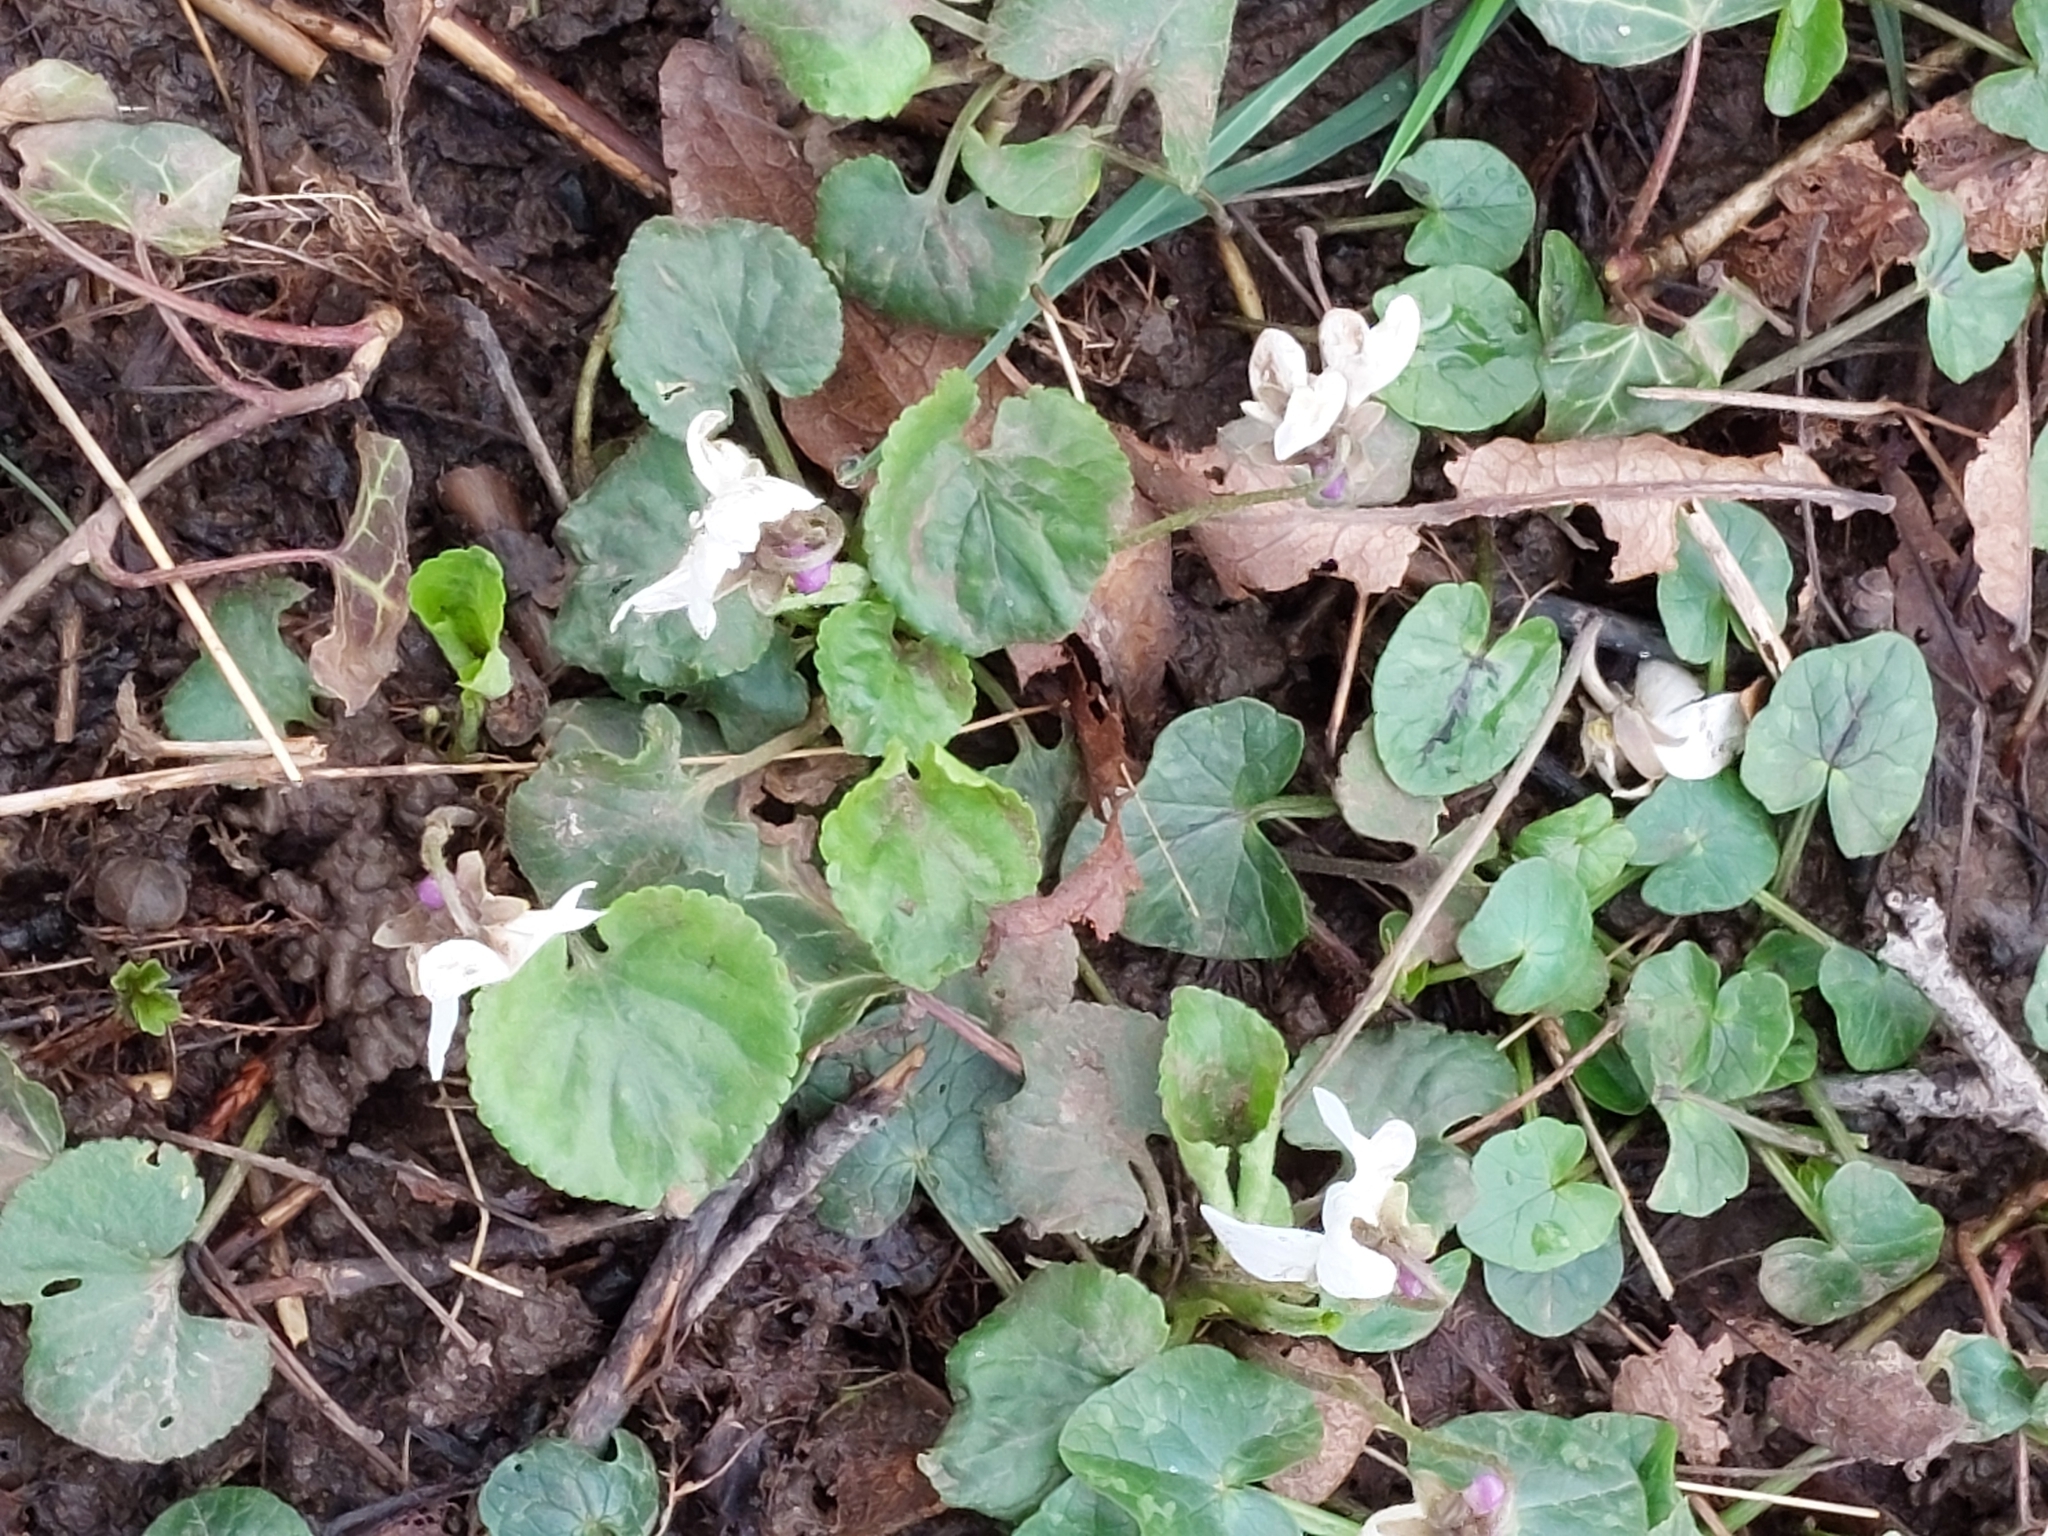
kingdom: Plantae
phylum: Tracheophyta
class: Magnoliopsida
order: Malpighiales
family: Violaceae
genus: Viola
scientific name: Viola odorata
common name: Sweet violet
